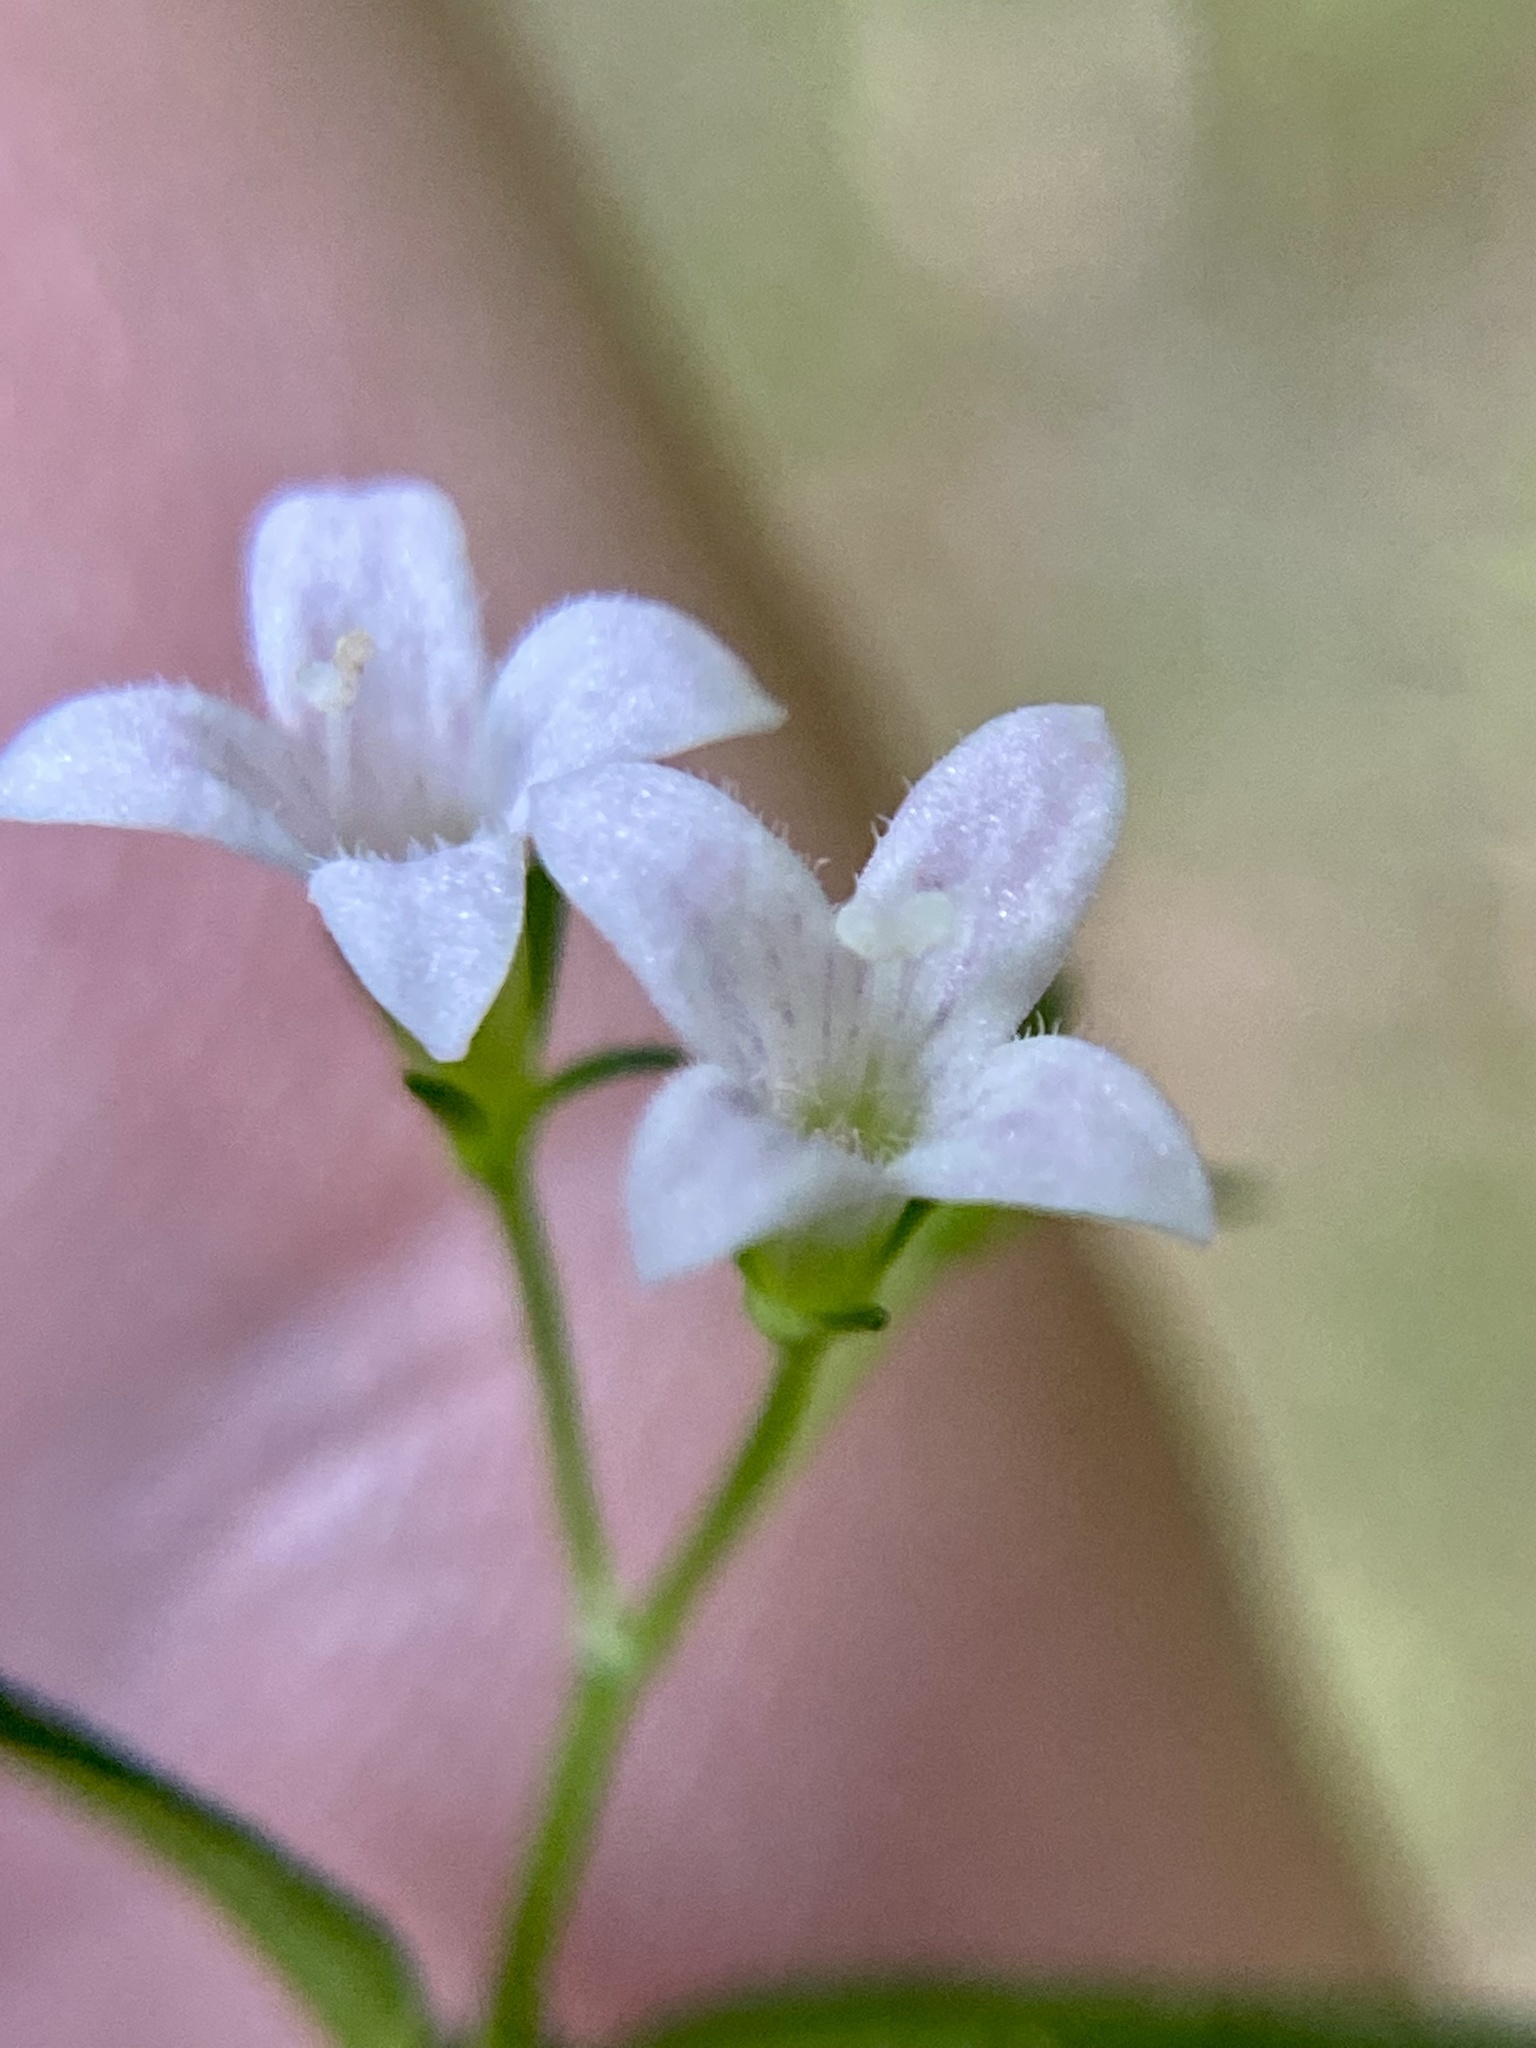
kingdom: Plantae
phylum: Tracheophyta
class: Magnoliopsida
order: Gentianales
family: Rubiaceae
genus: Houstonia
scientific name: Houstonia purpurea
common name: Summer bluet
